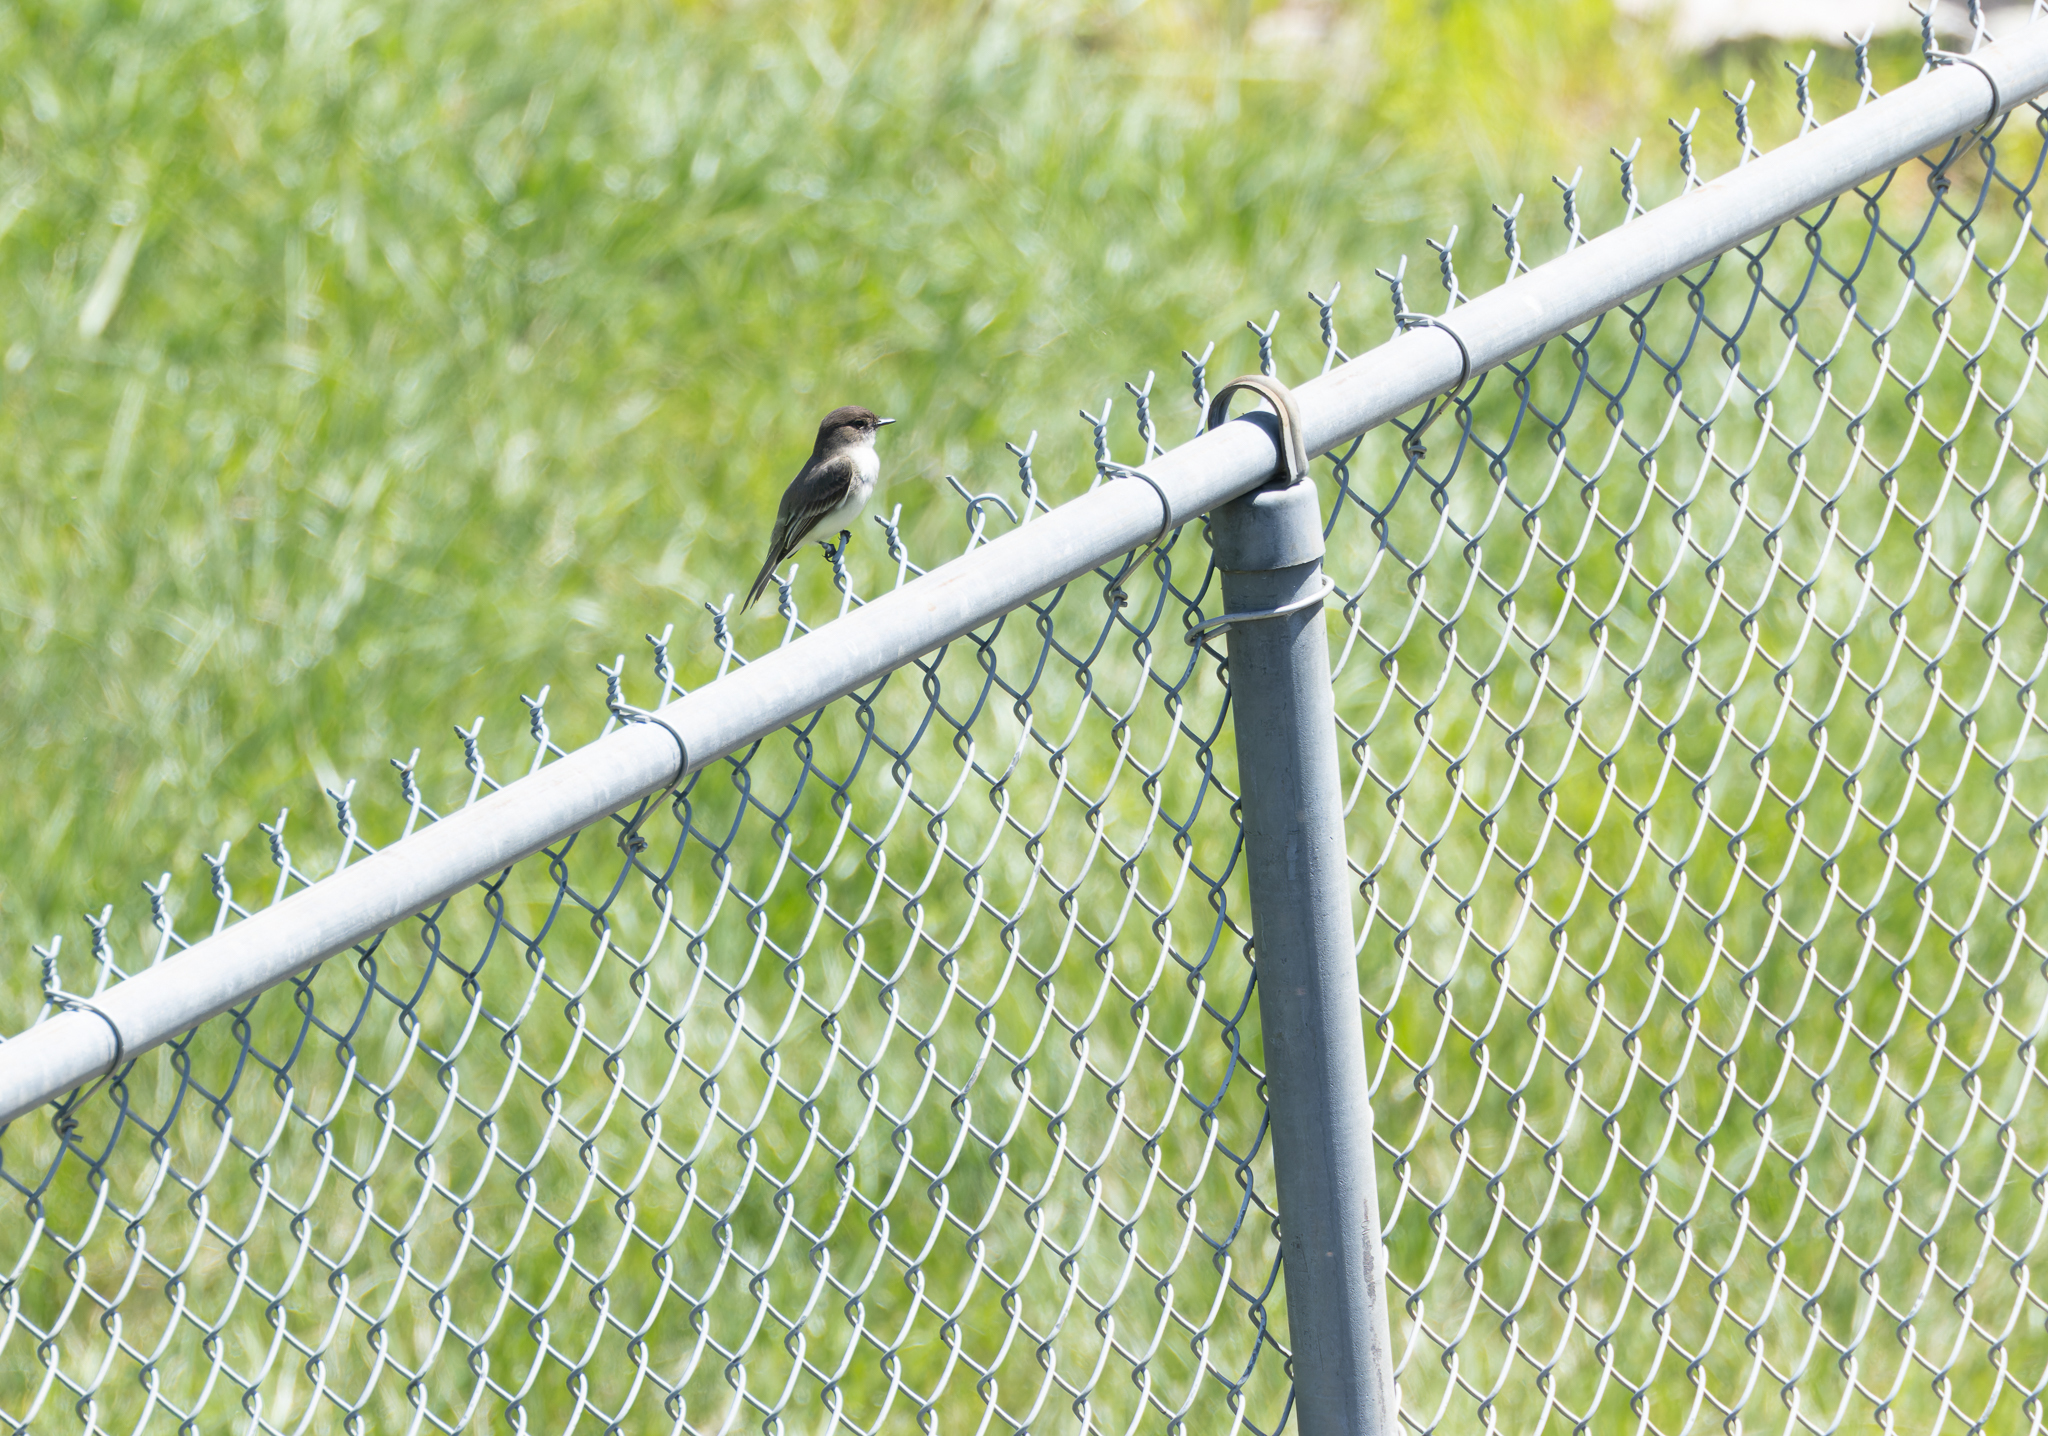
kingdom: Animalia
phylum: Chordata
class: Aves
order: Passeriformes
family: Tyrannidae
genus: Sayornis
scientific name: Sayornis phoebe
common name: Eastern phoebe
